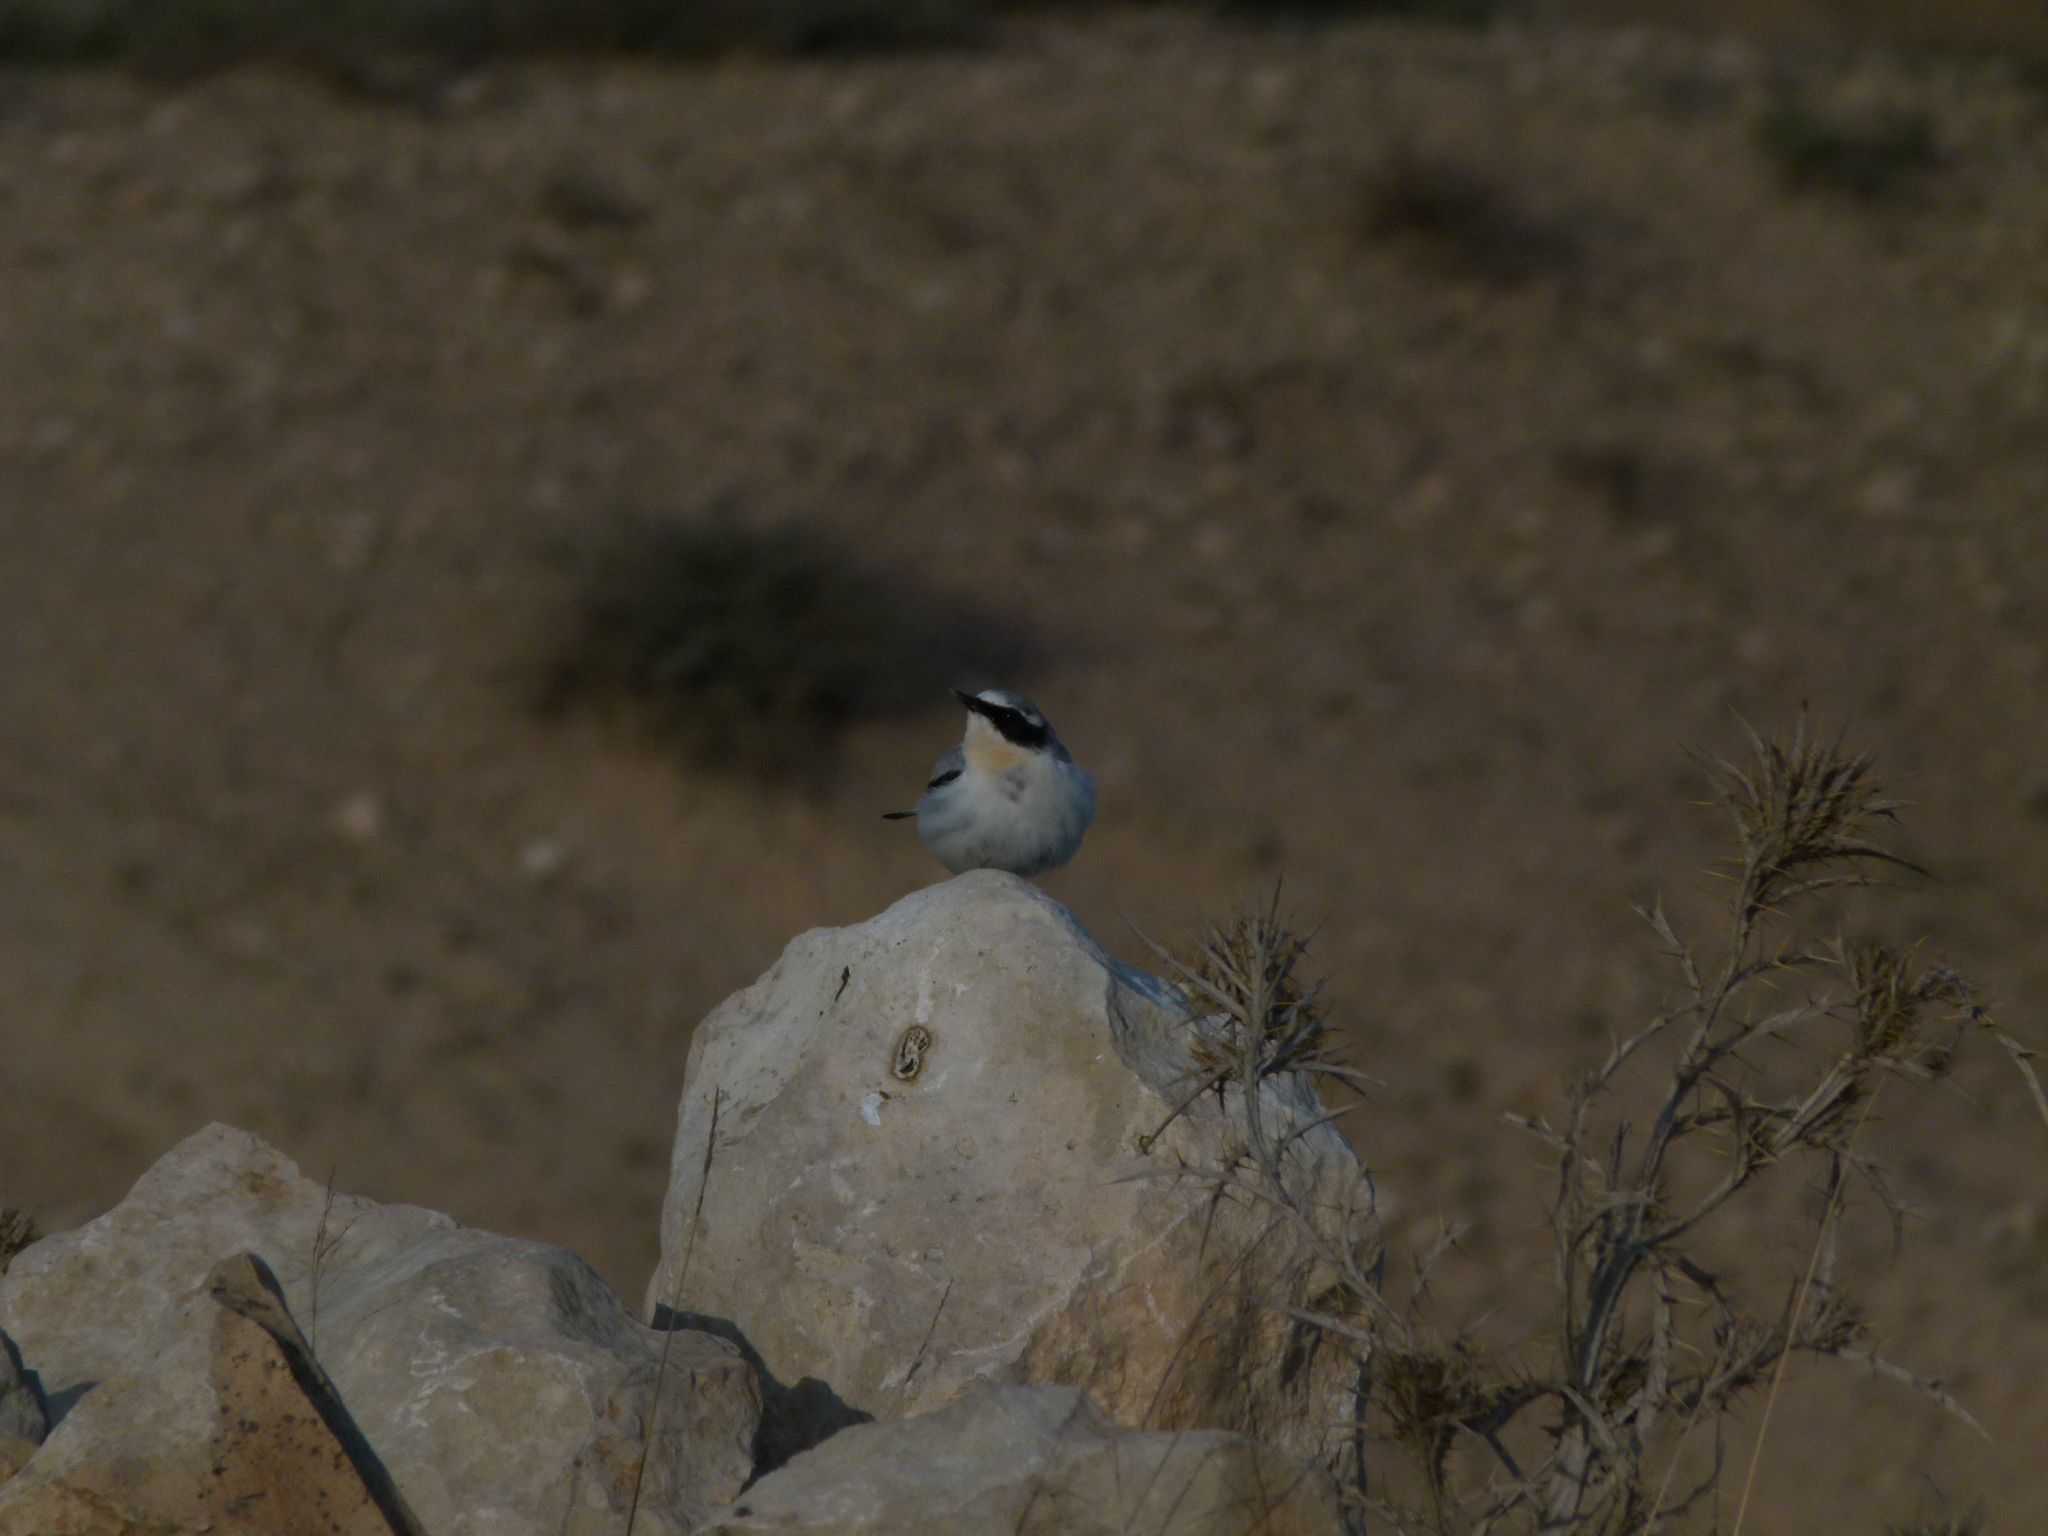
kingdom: Animalia
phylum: Chordata
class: Aves
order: Passeriformes
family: Muscicapidae
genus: Oenanthe
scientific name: Oenanthe oenanthe
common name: Northern wheatear
